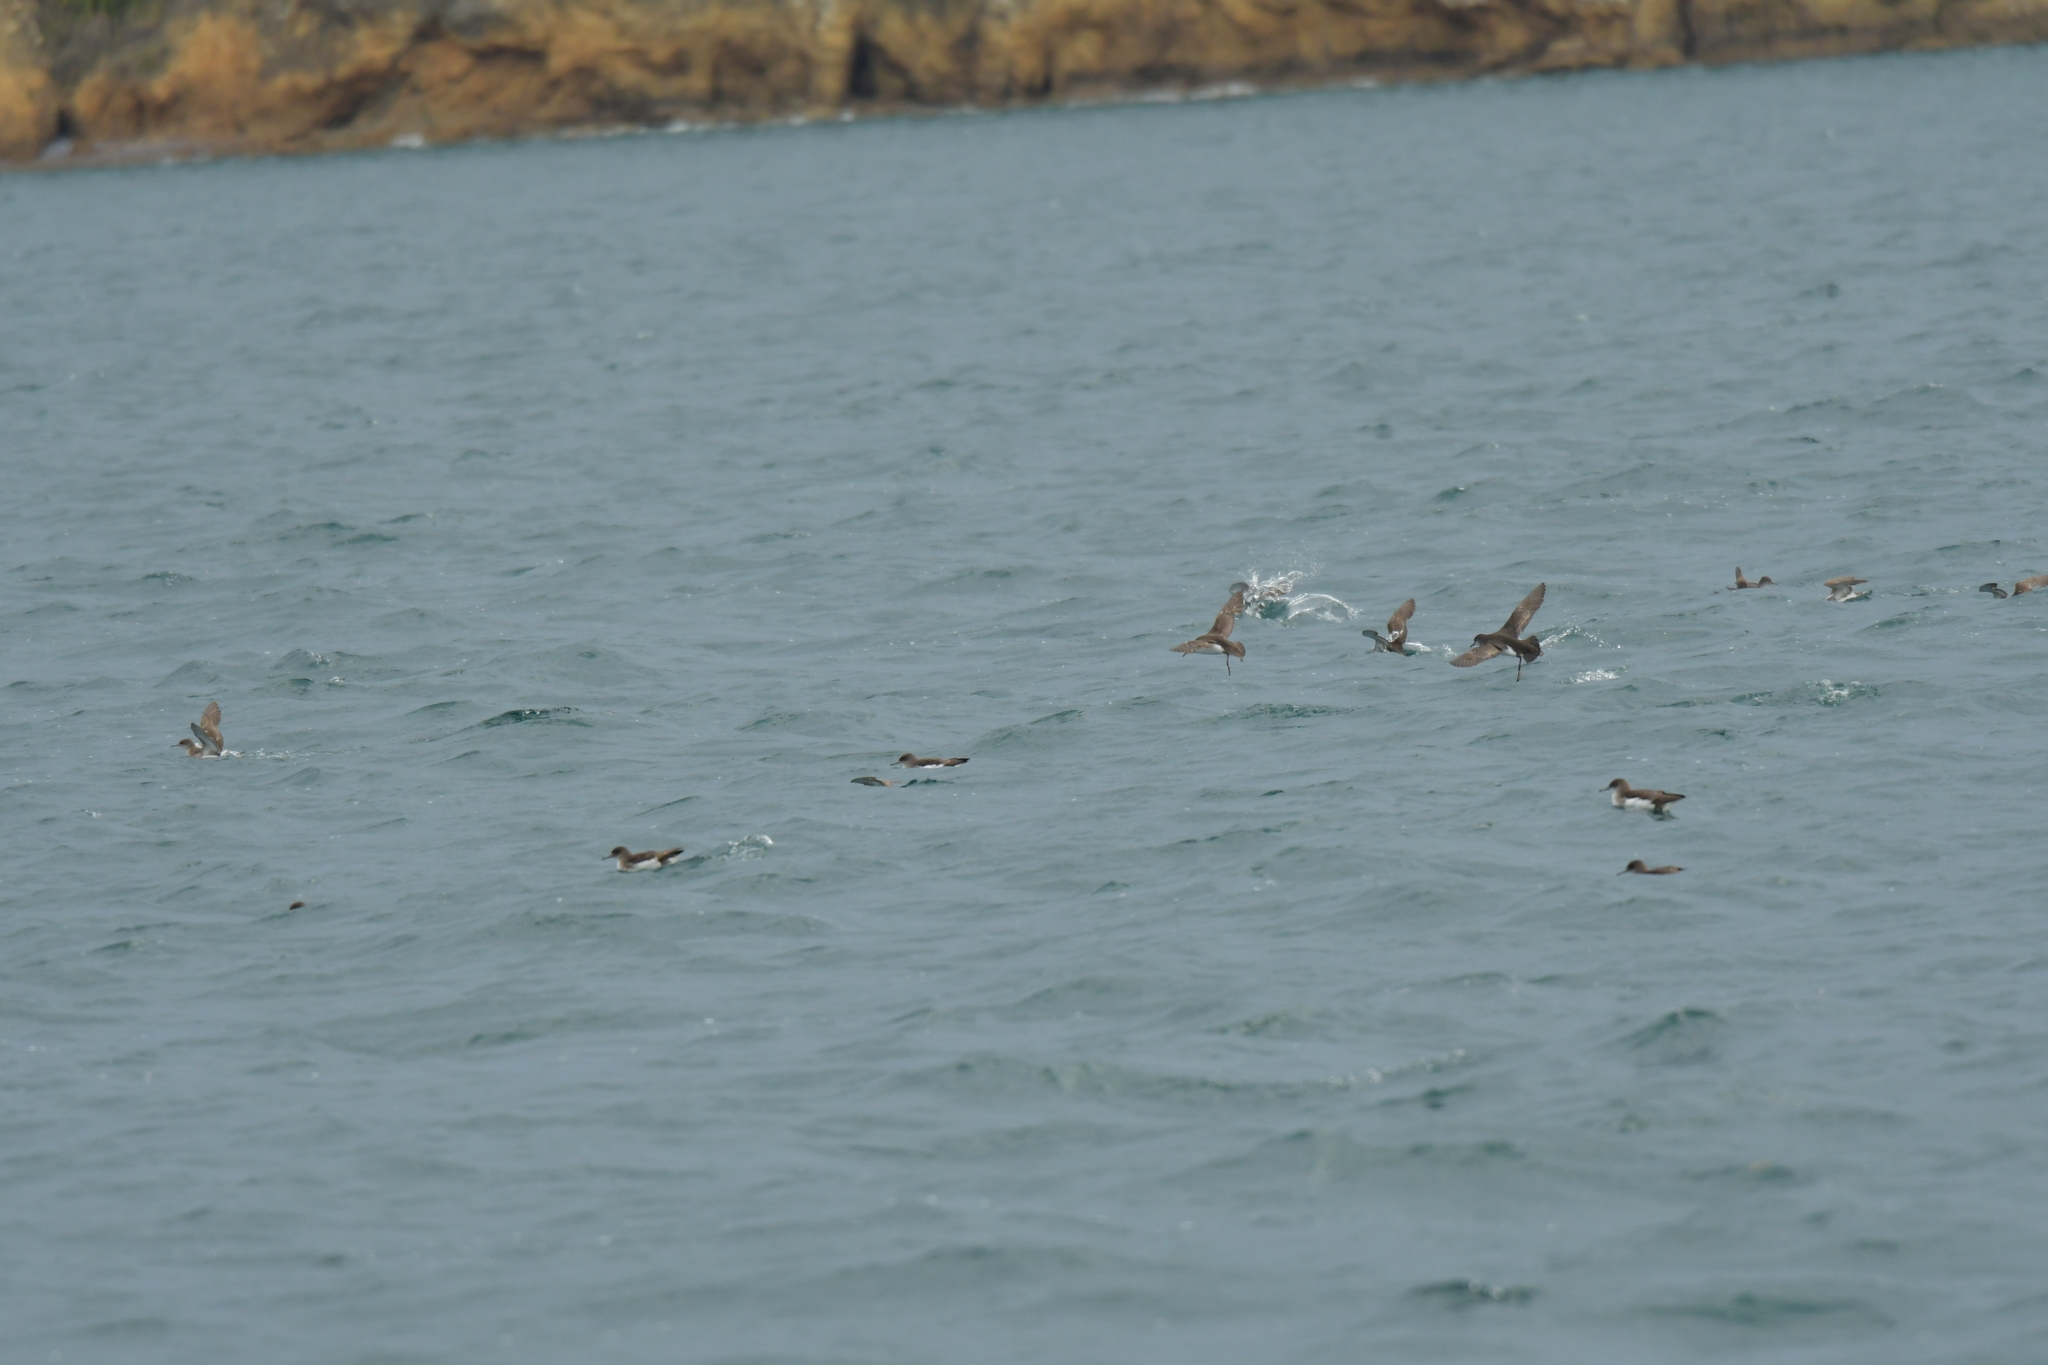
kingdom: Animalia
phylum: Chordata
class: Aves
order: Procellariiformes
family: Procellariidae
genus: Puffinus
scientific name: Puffinus gavia
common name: Fluttering shearwater
